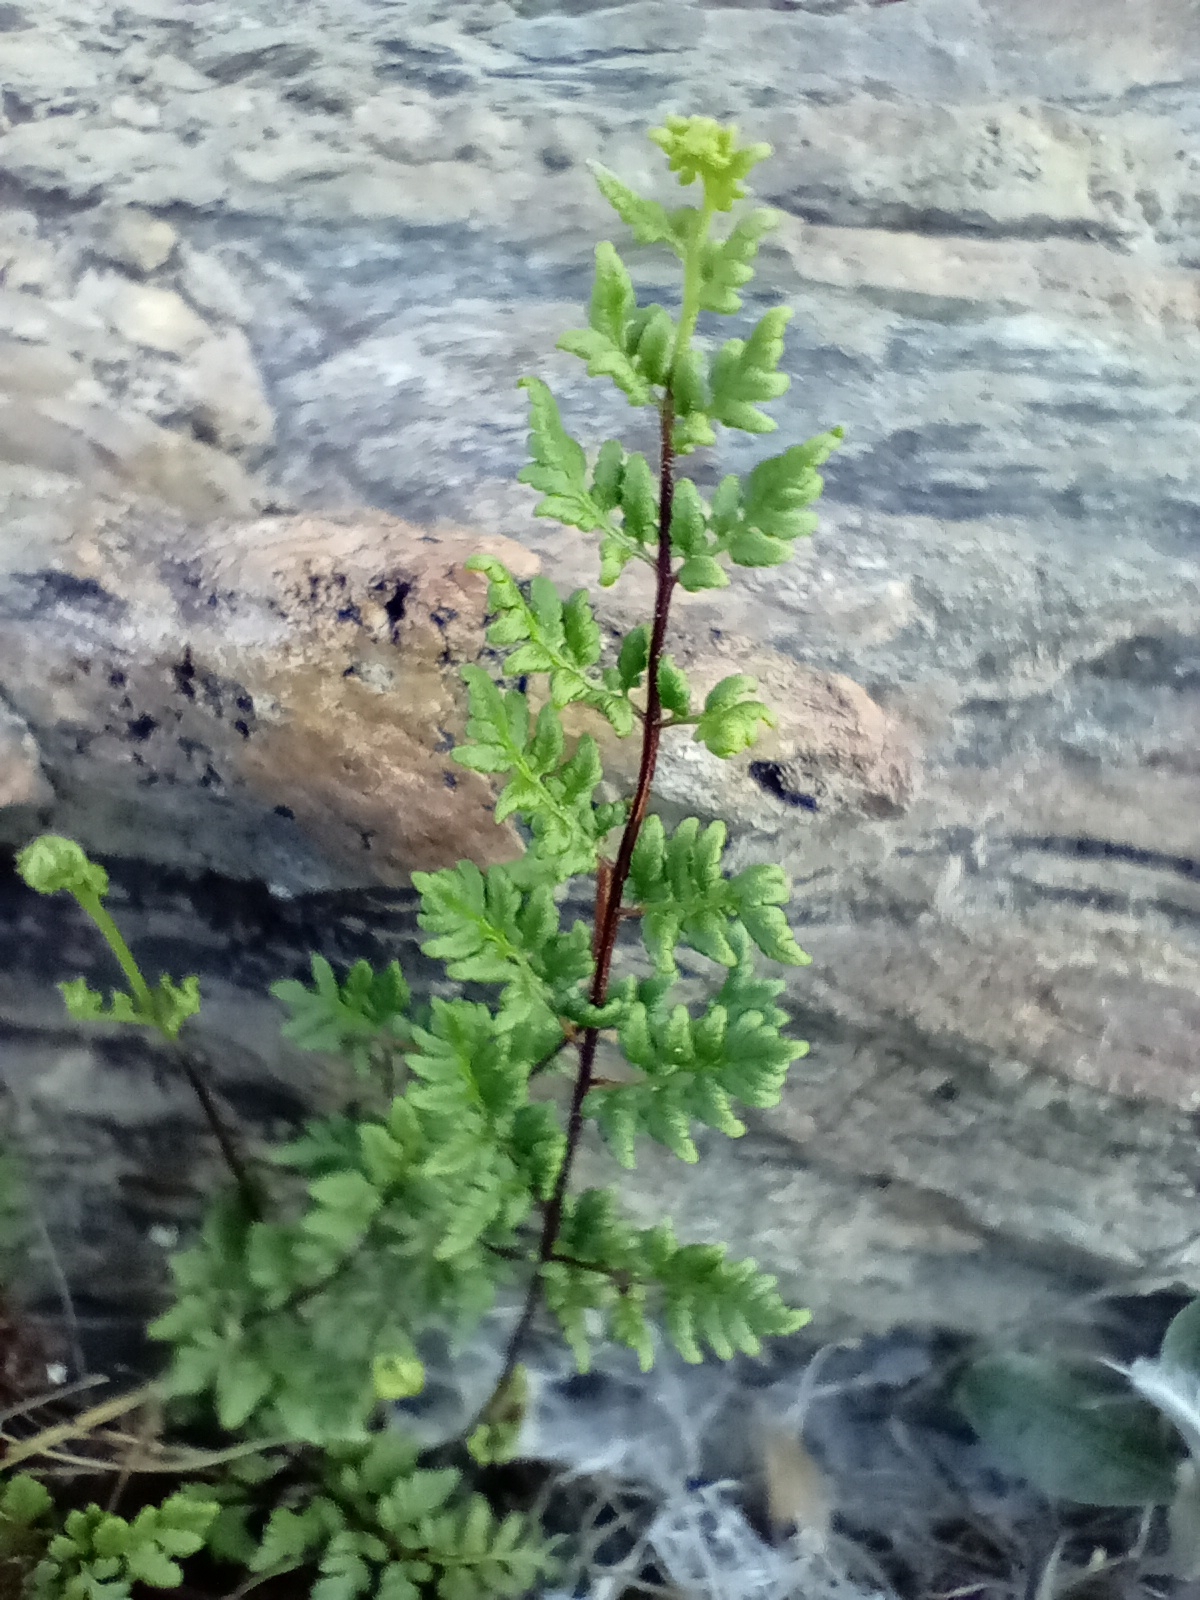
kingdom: Plantae
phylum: Tracheophyta
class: Polypodiopsida
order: Polypodiales
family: Pteridaceae
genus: Cheilanthes
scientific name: Cheilanthes sieberi
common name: Mulga fern
